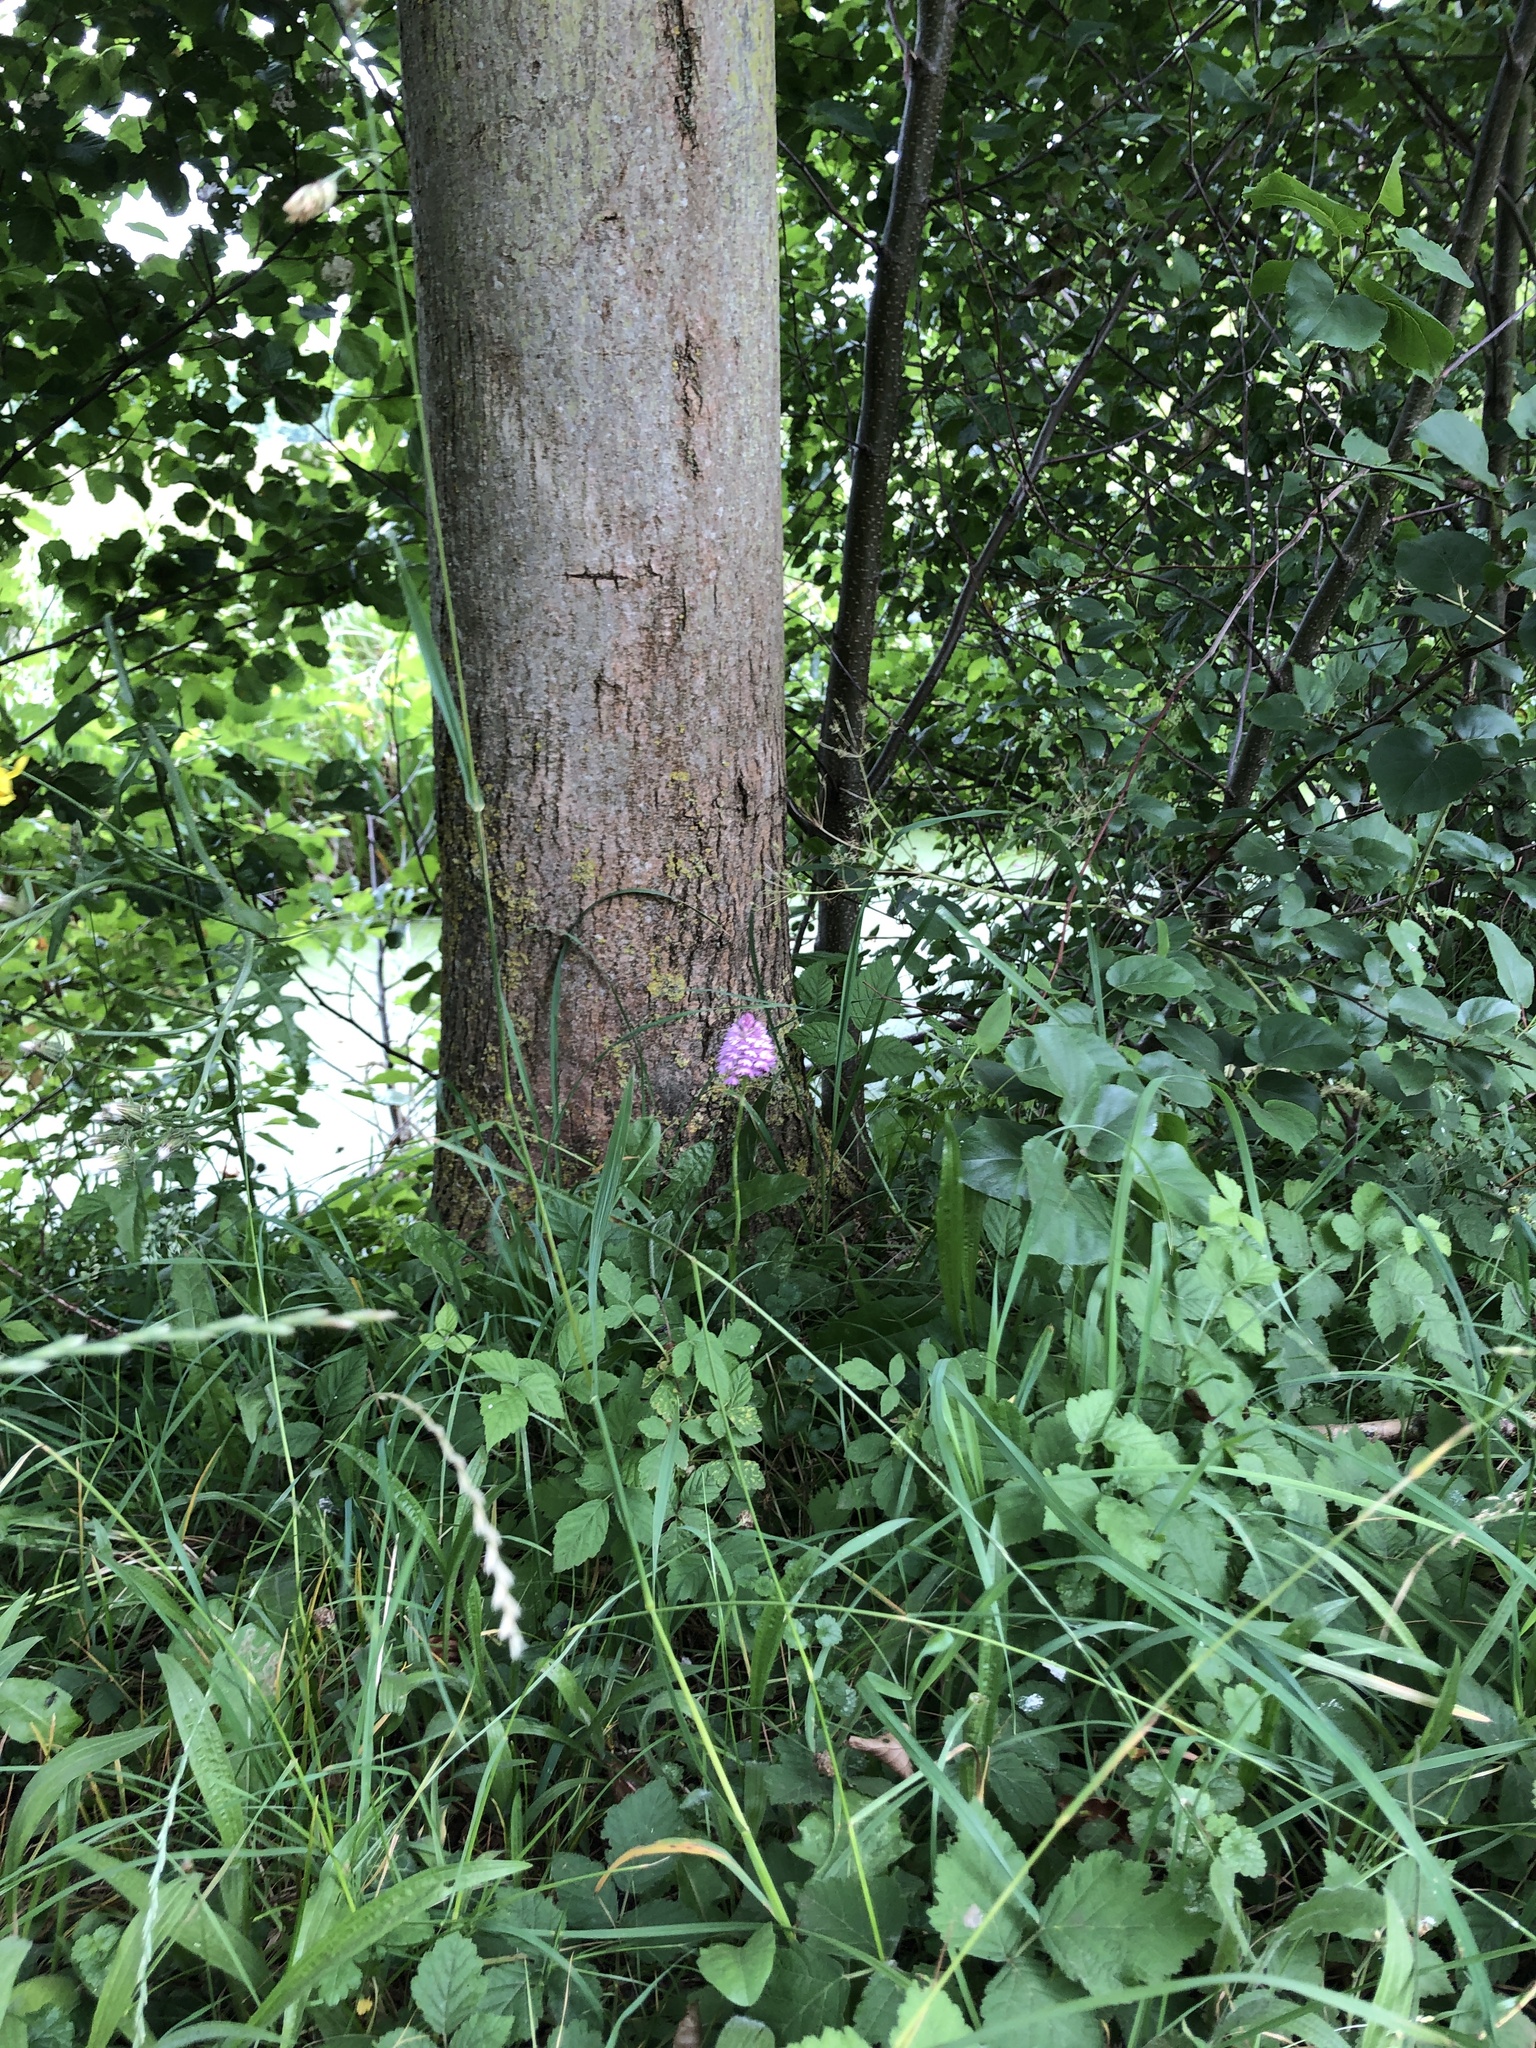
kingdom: Plantae
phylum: Tracheophyta
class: Liliopsida
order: Asparagales
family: Orchidaceae
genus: Anacamptis
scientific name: Anacamptis pyramidalis
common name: Pyramidal orchid
